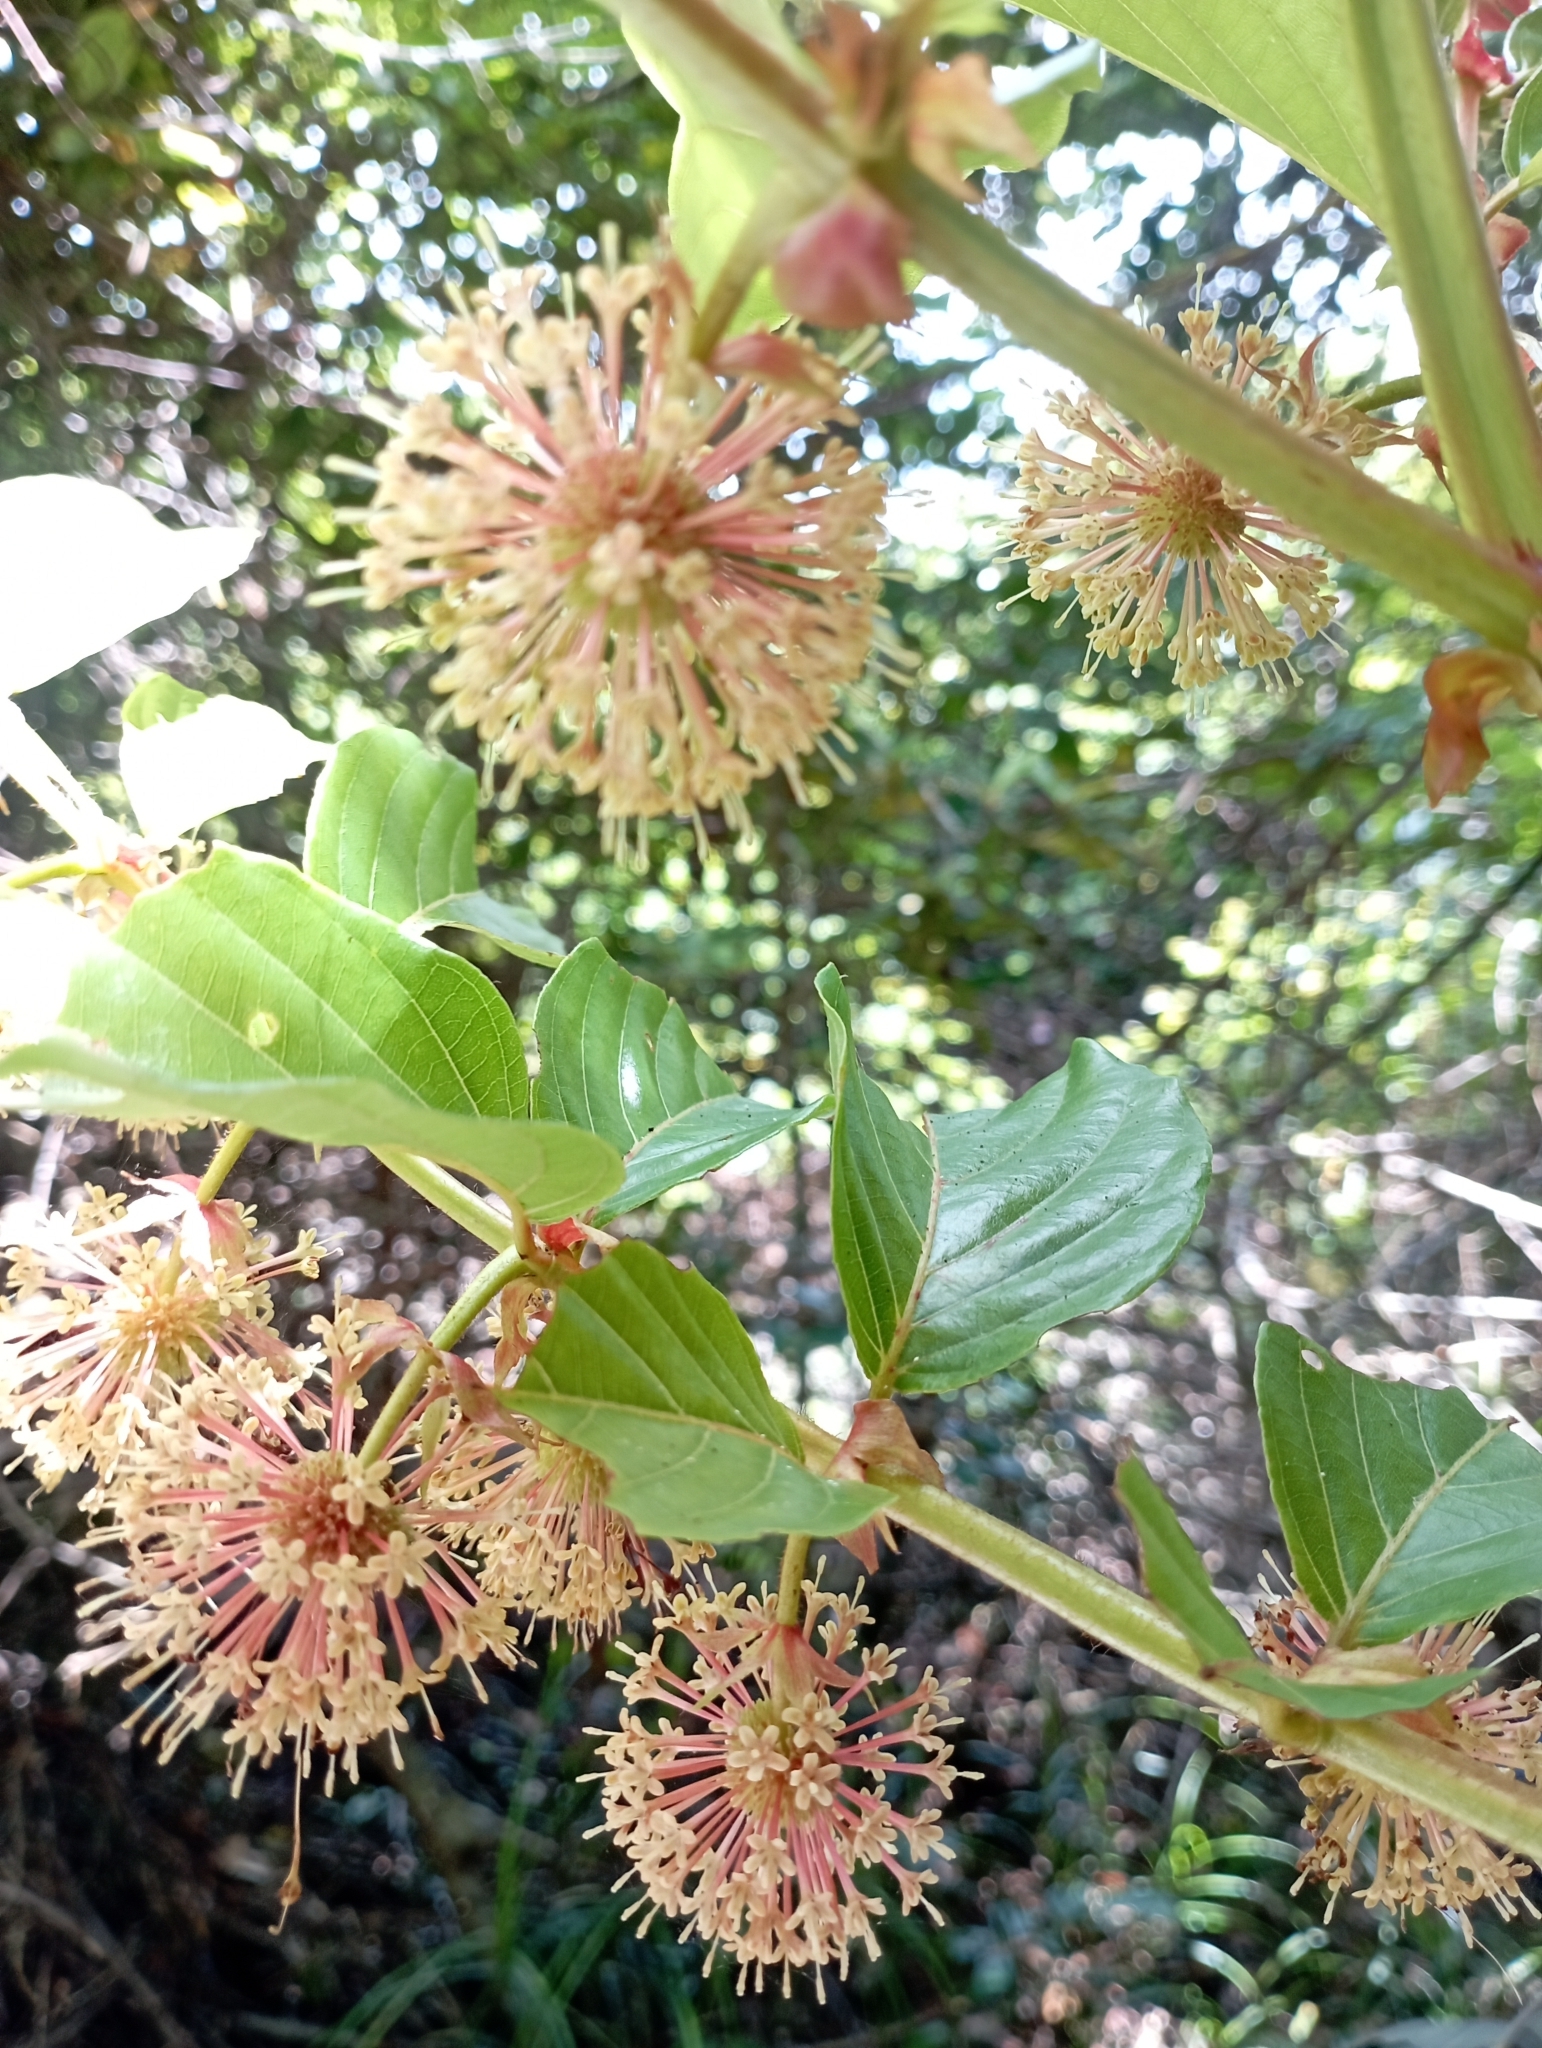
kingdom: Plantae
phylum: Tracheophyta
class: Magnoliopsida
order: Gentianales
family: Rubiaceae
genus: Uncaria
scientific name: Uncaria lanosa
